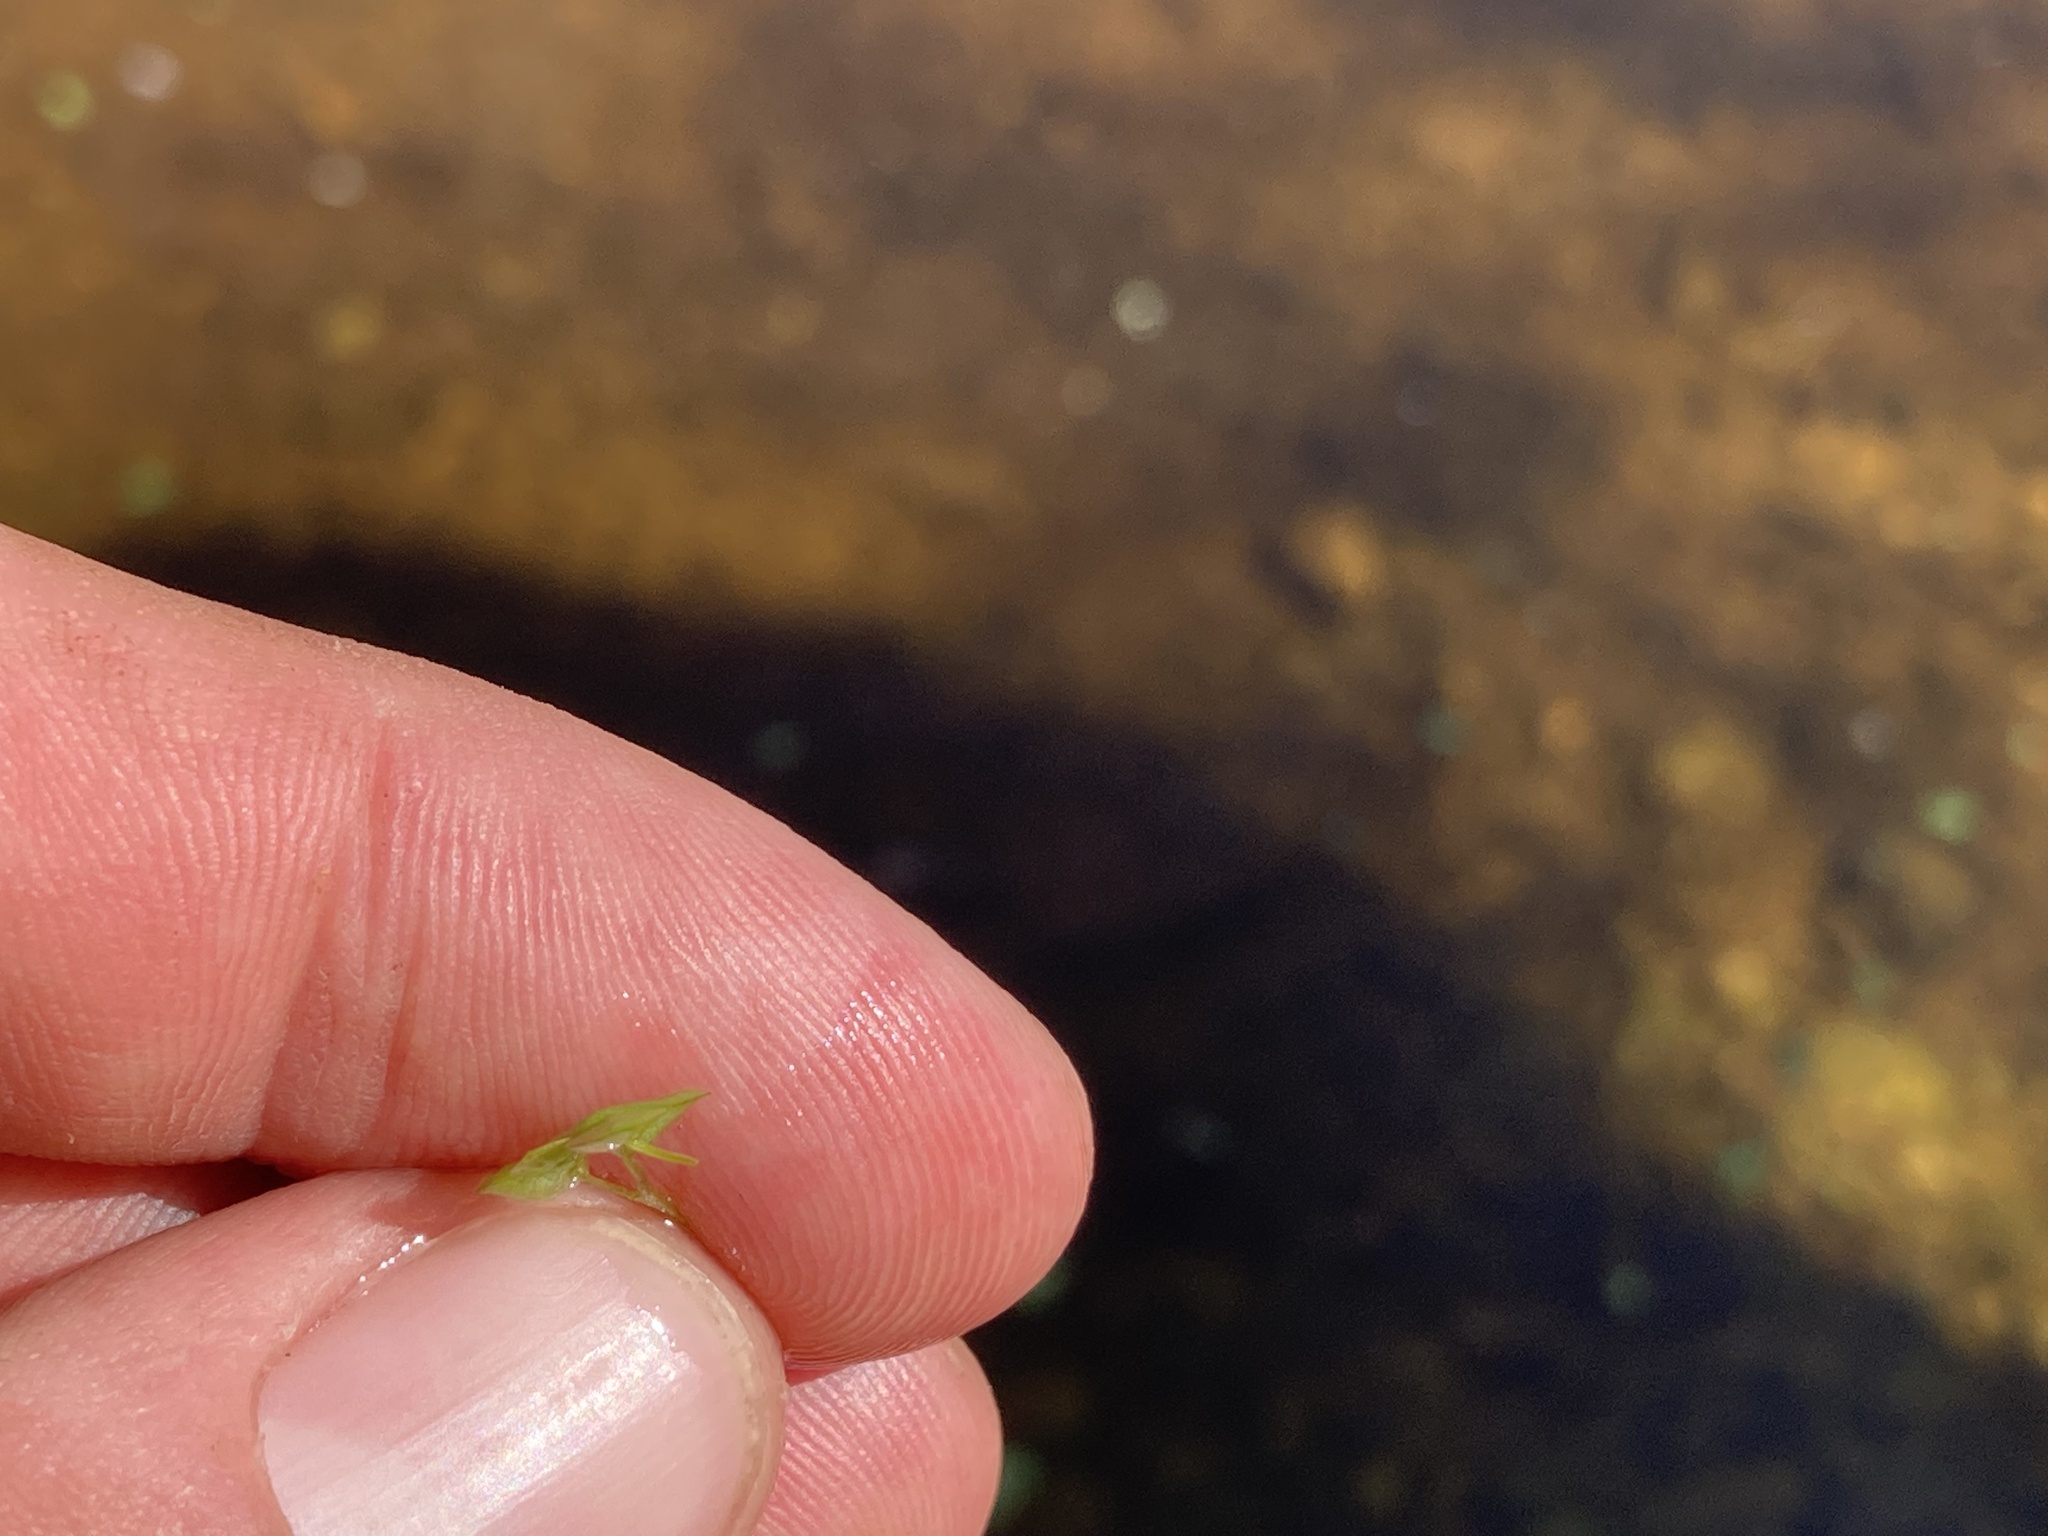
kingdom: Plantae
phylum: Tracheophyta
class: Liliopsida
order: Alismatales
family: Araceae
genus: Lemna
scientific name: Lemna gibba
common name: Fat duckweed
